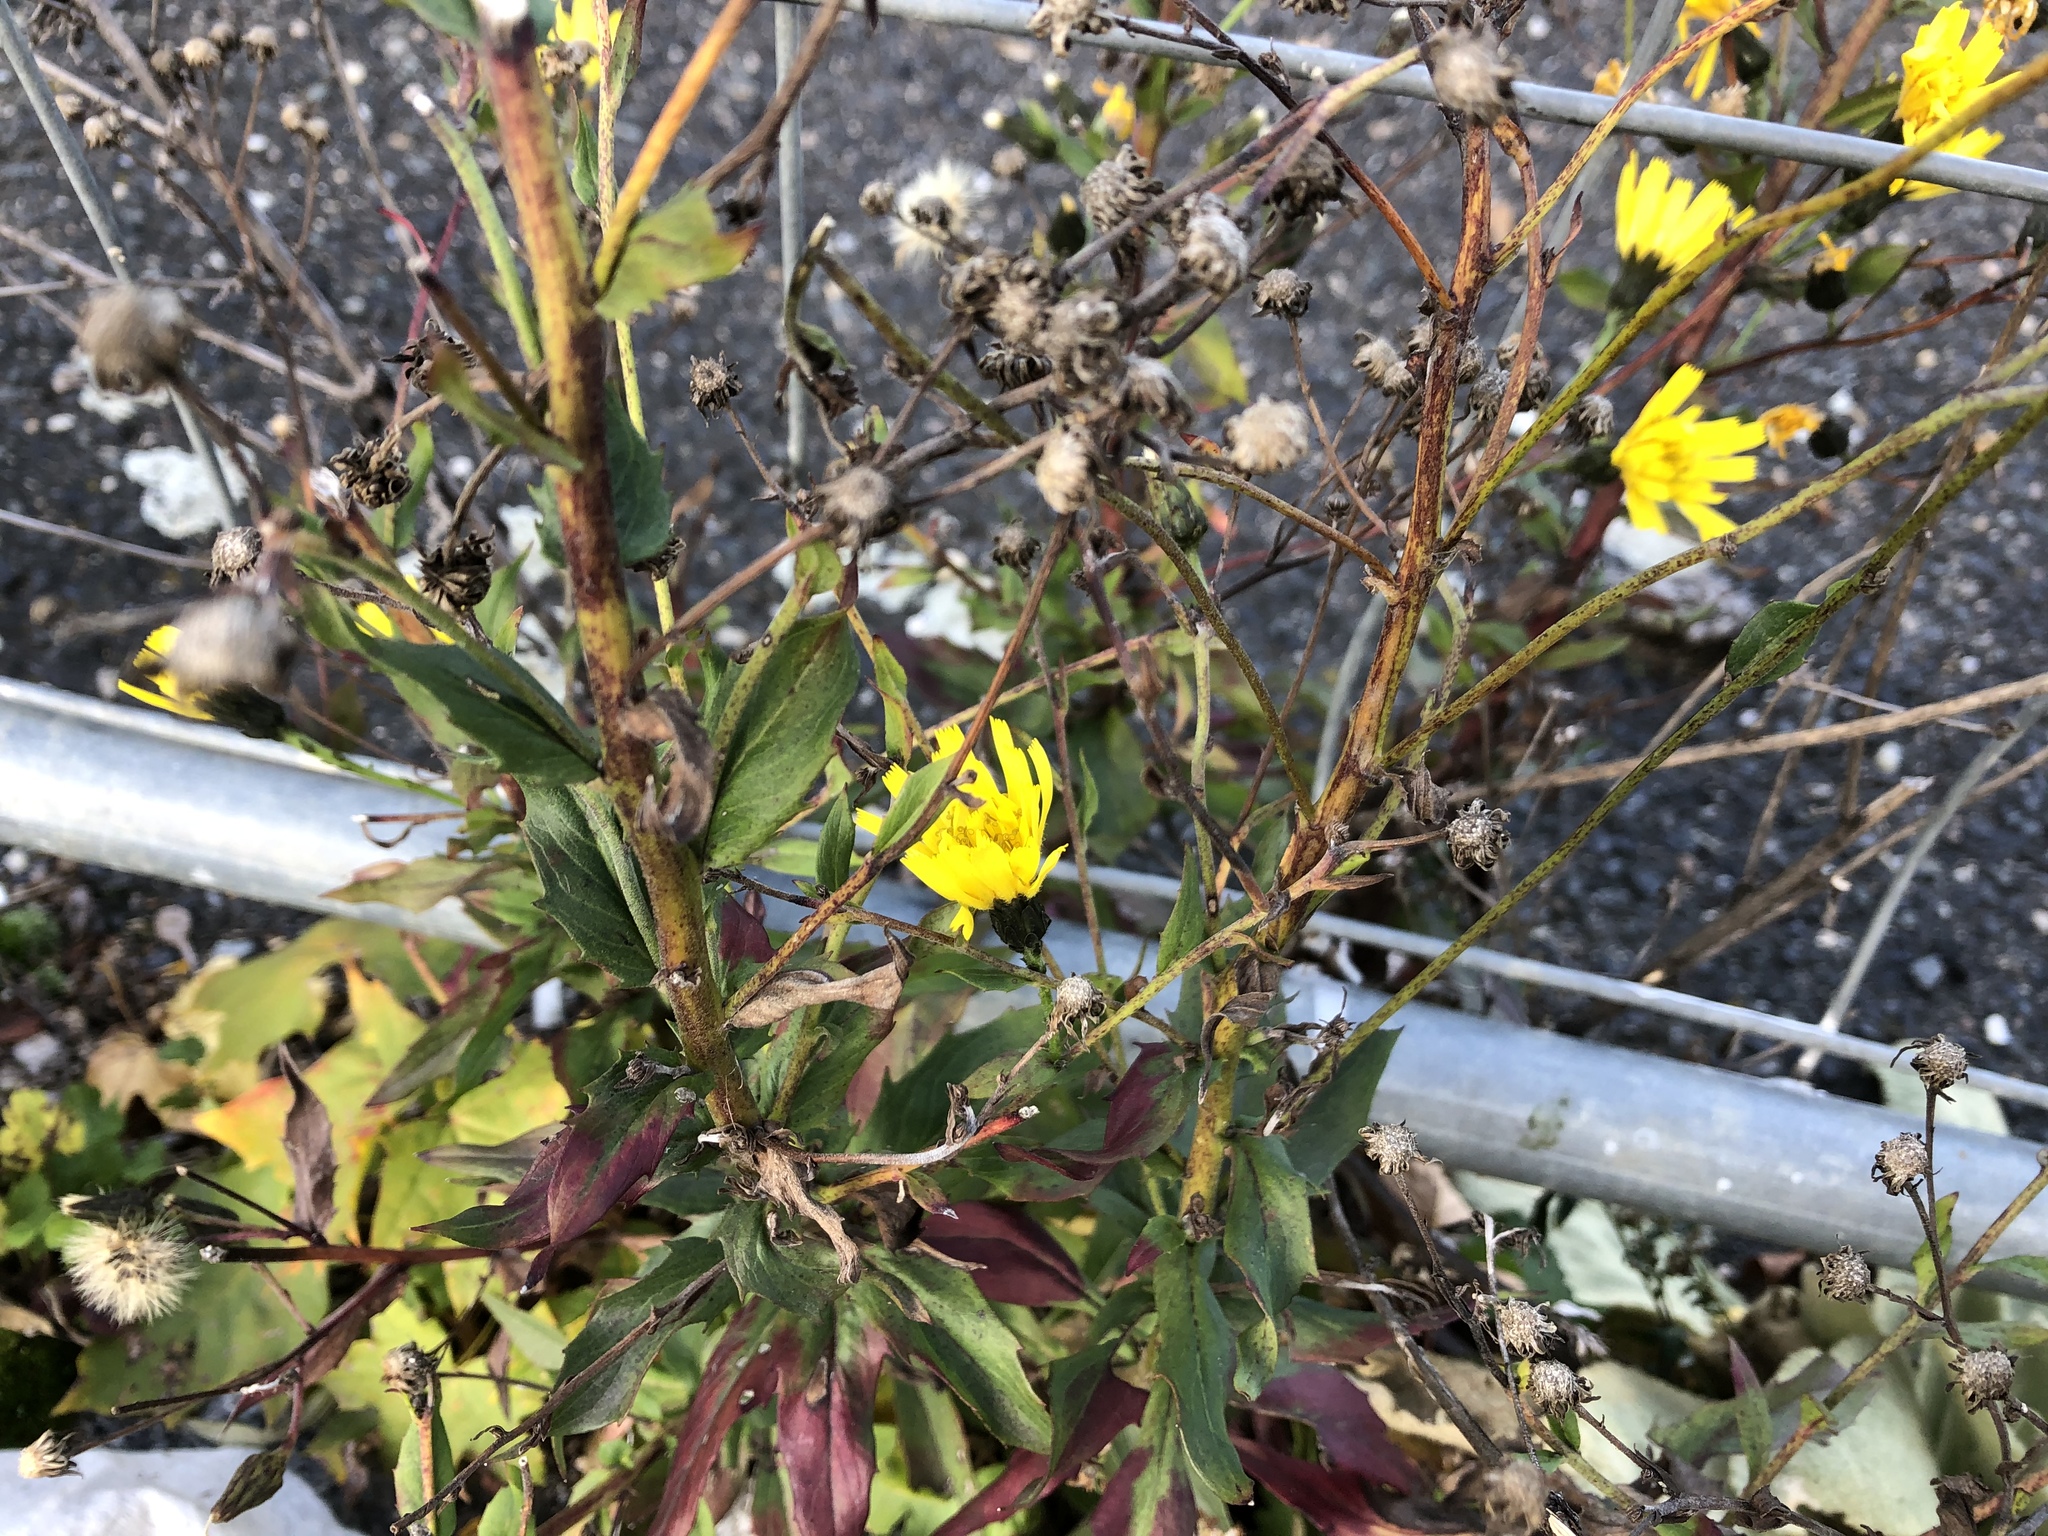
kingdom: Plantae
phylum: Tracheophyta
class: Magnoliopsida
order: Asterales
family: Asteraceae
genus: Hieracium
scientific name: Hieracium sabaudum
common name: New england hawkweed
